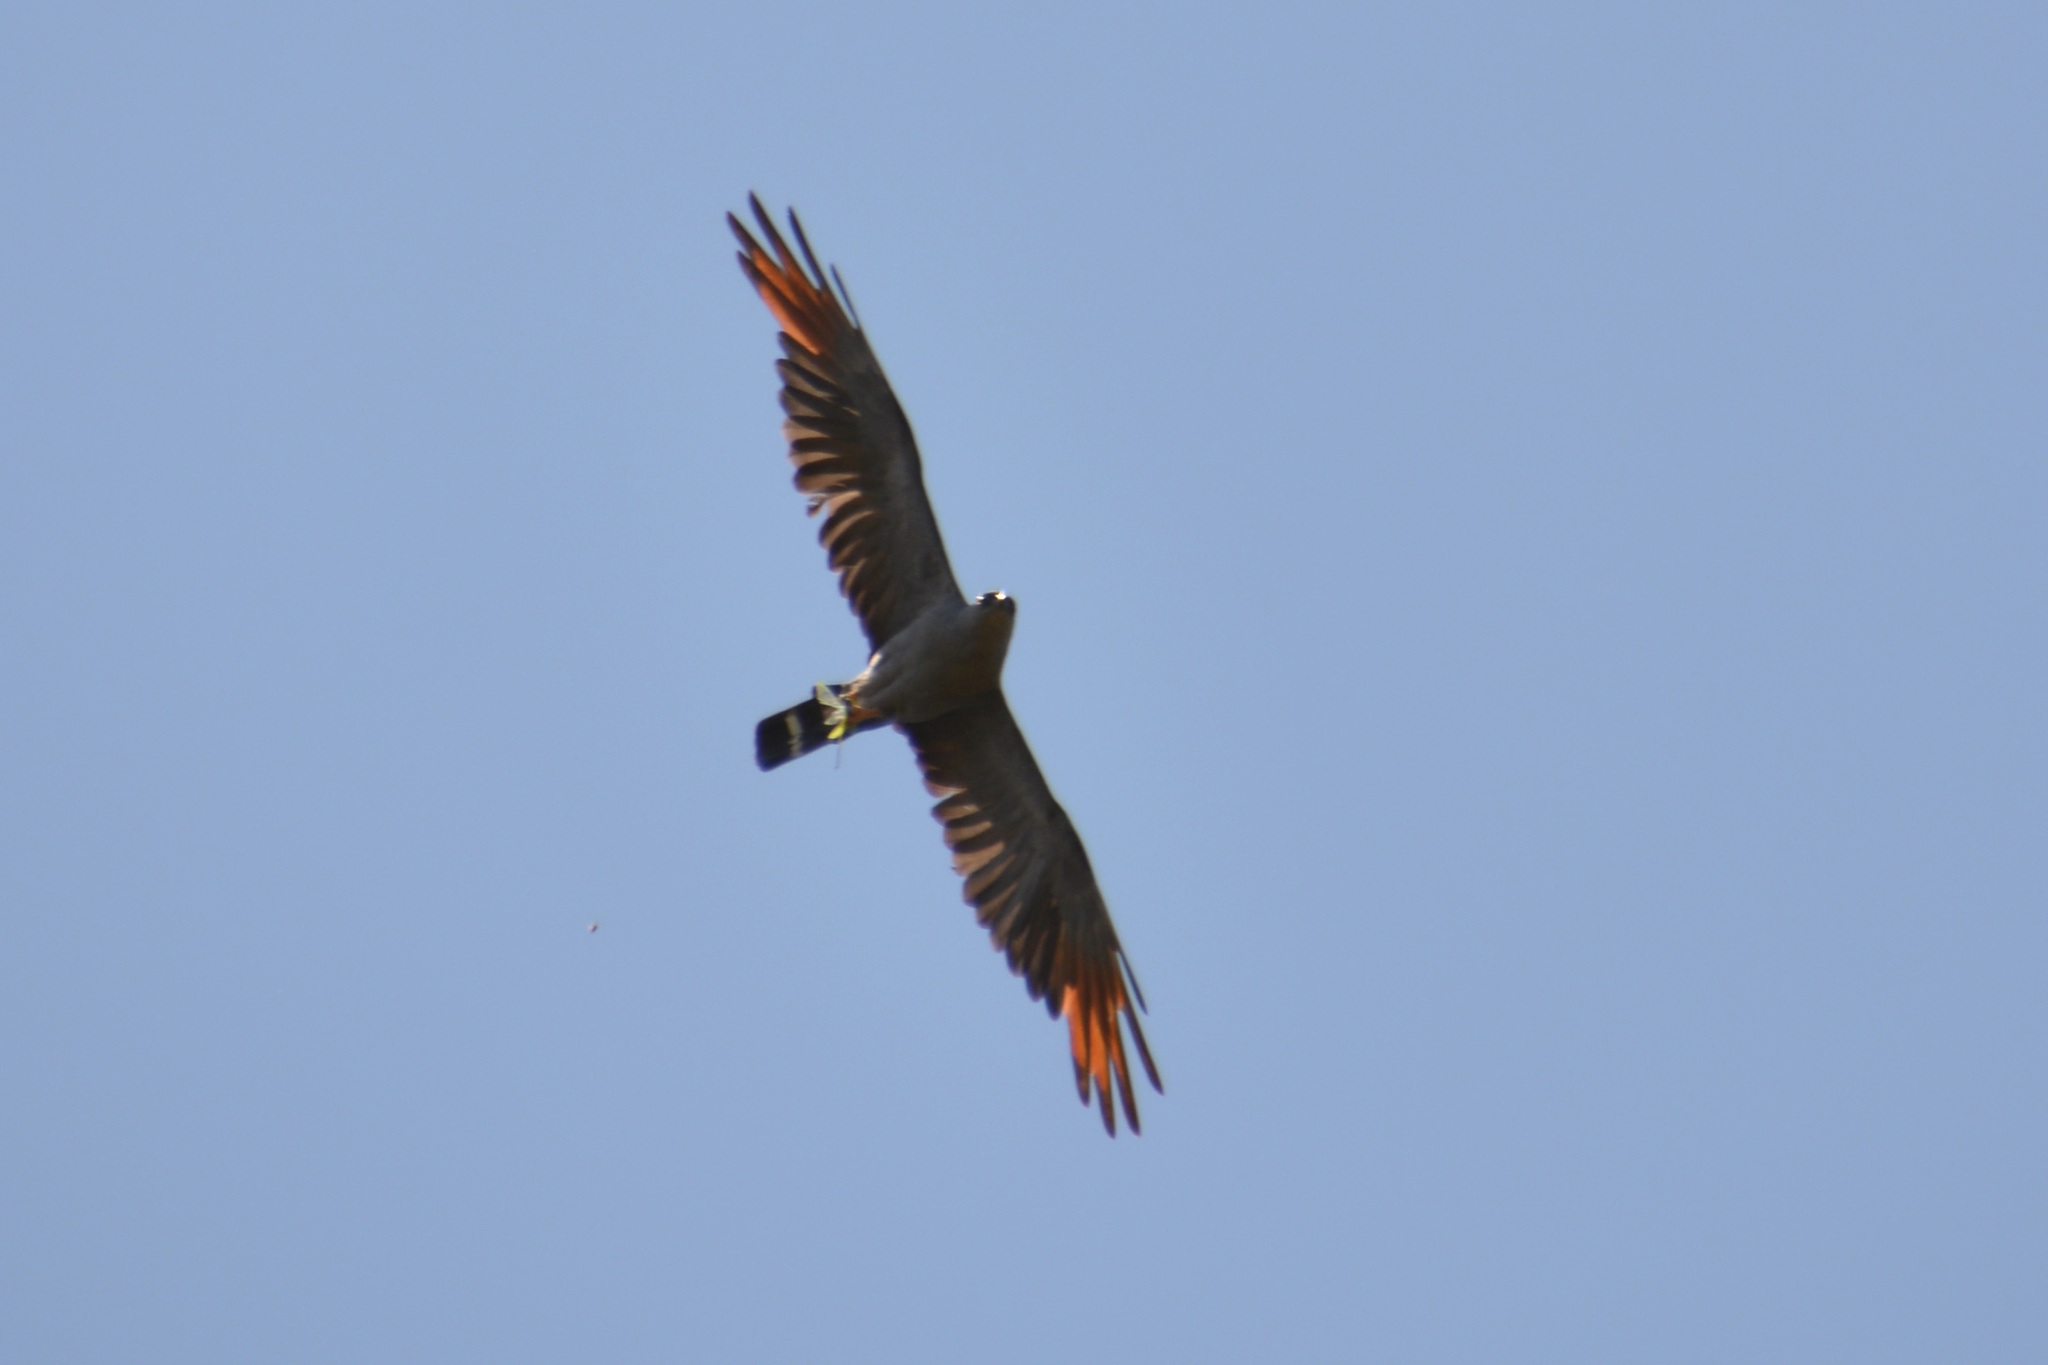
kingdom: Animalia
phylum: Chordata
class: Aves
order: Accipitriformes
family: Accipitridae
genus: Ictinia
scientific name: Ictinia plumbea
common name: Plumbeous kite
